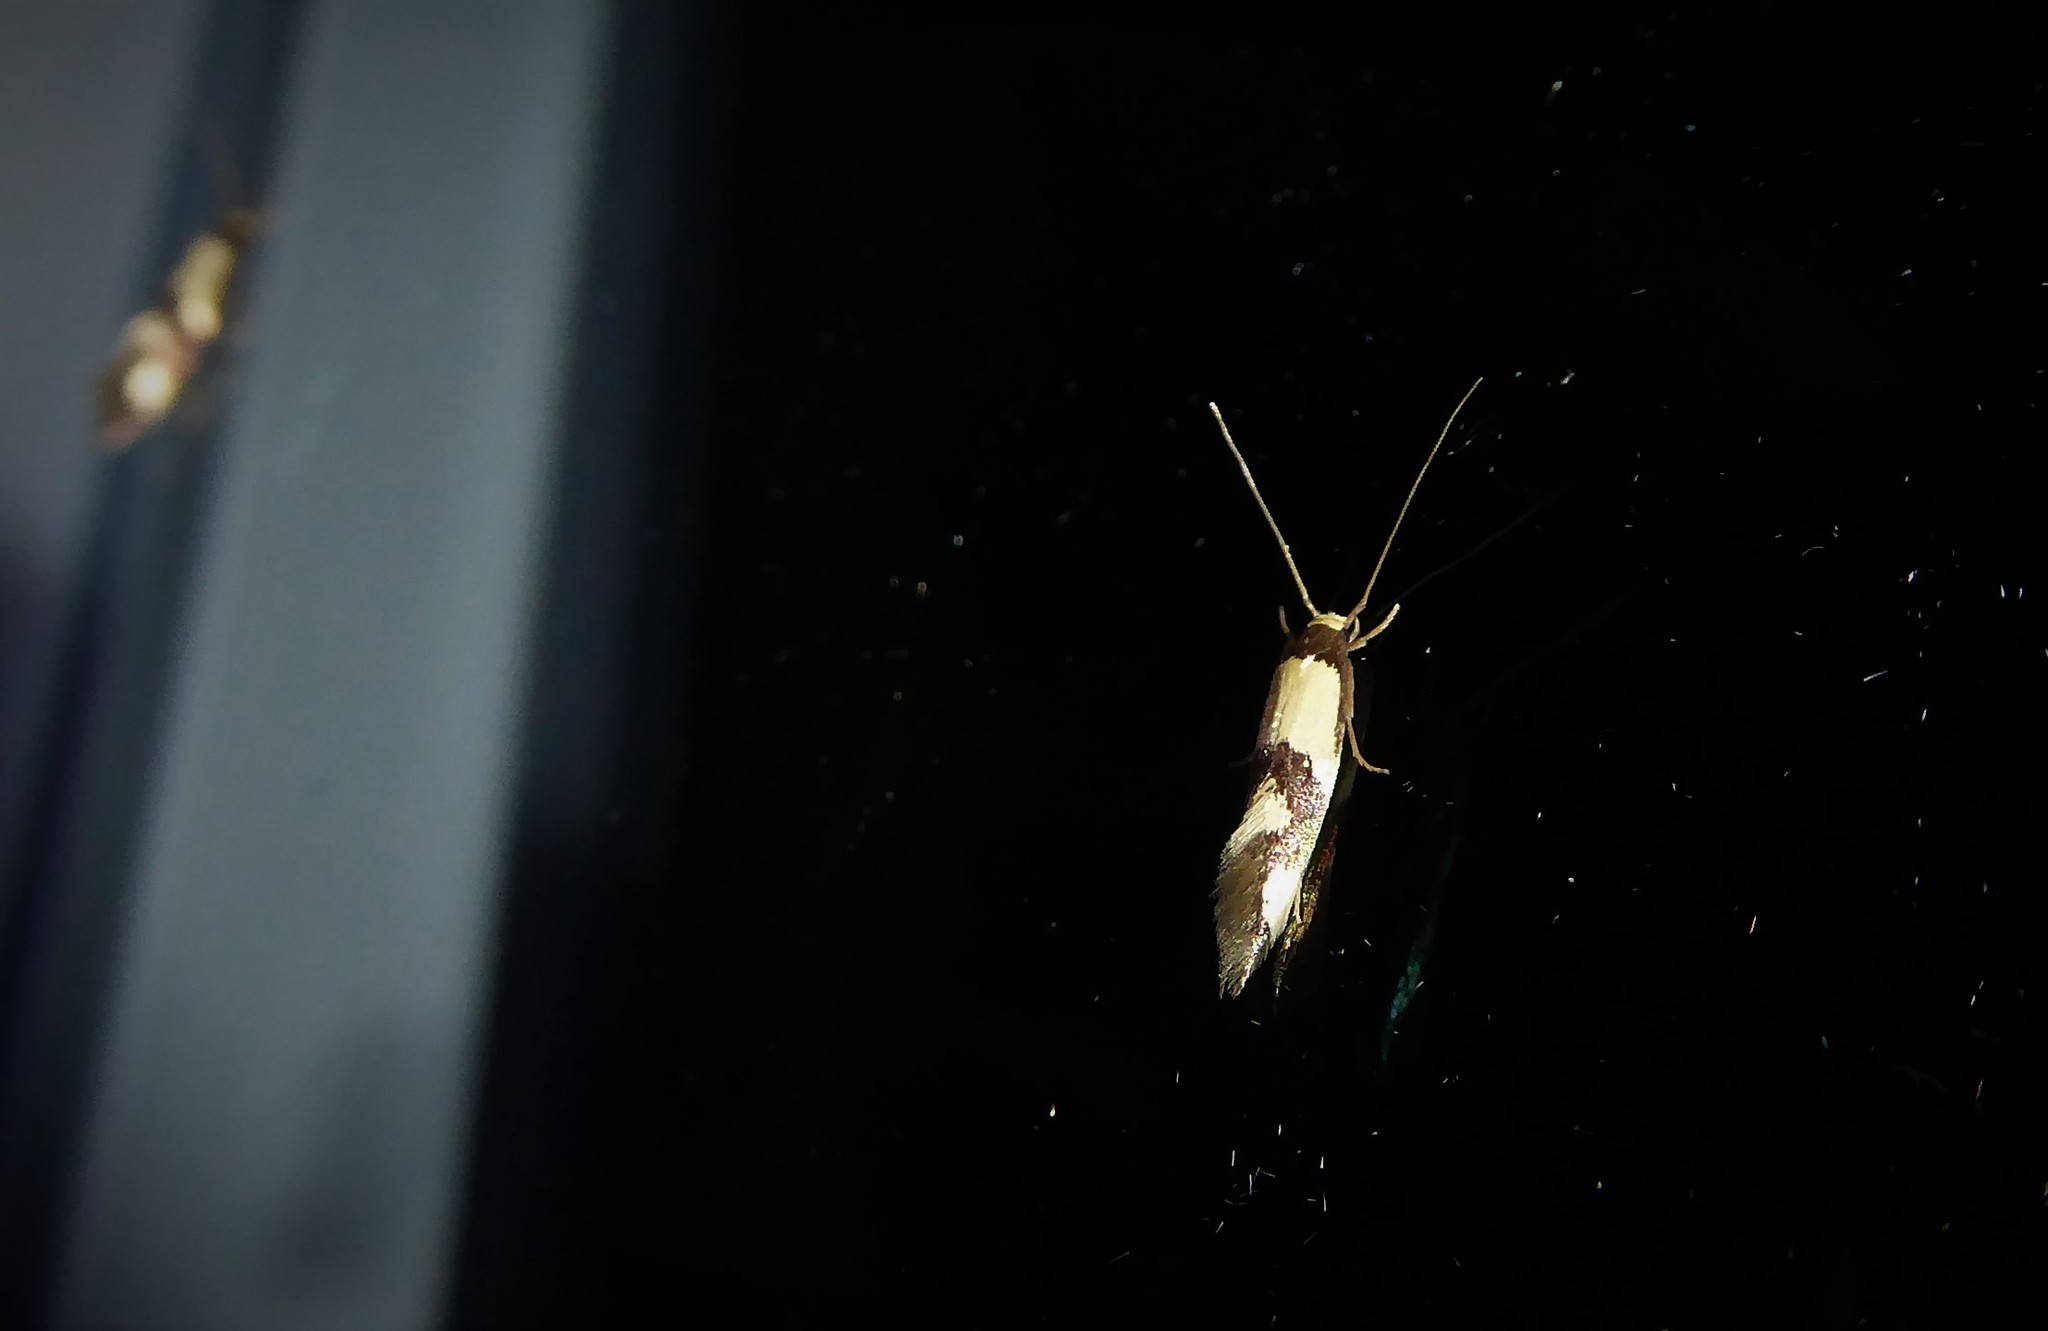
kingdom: Animalia
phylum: Arthropoda
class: Insecta
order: Lepidoptera
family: Tineidae
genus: Opogona
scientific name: Opogona comptella
